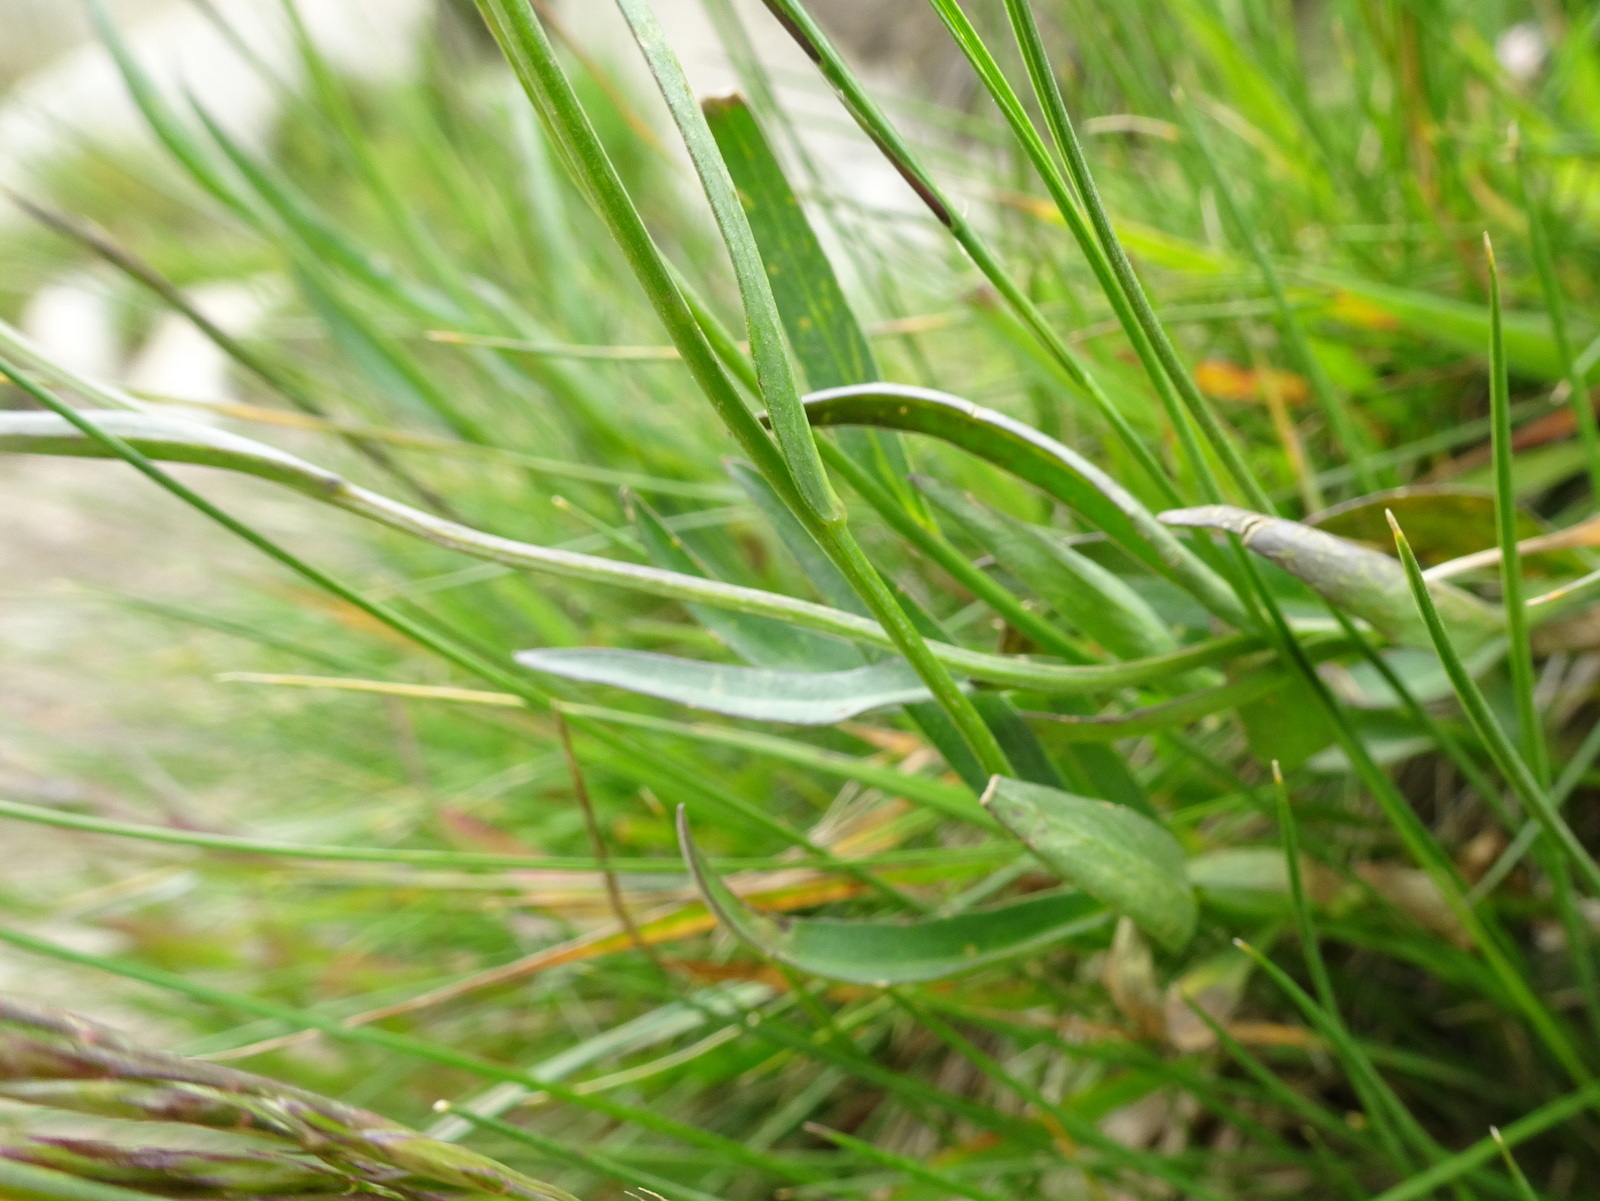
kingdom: Plantae
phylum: Tracheophyta
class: Magnoliopsida
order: Asterales
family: Campanulaceae
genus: Campanula
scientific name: Campanula scheuchzeri
